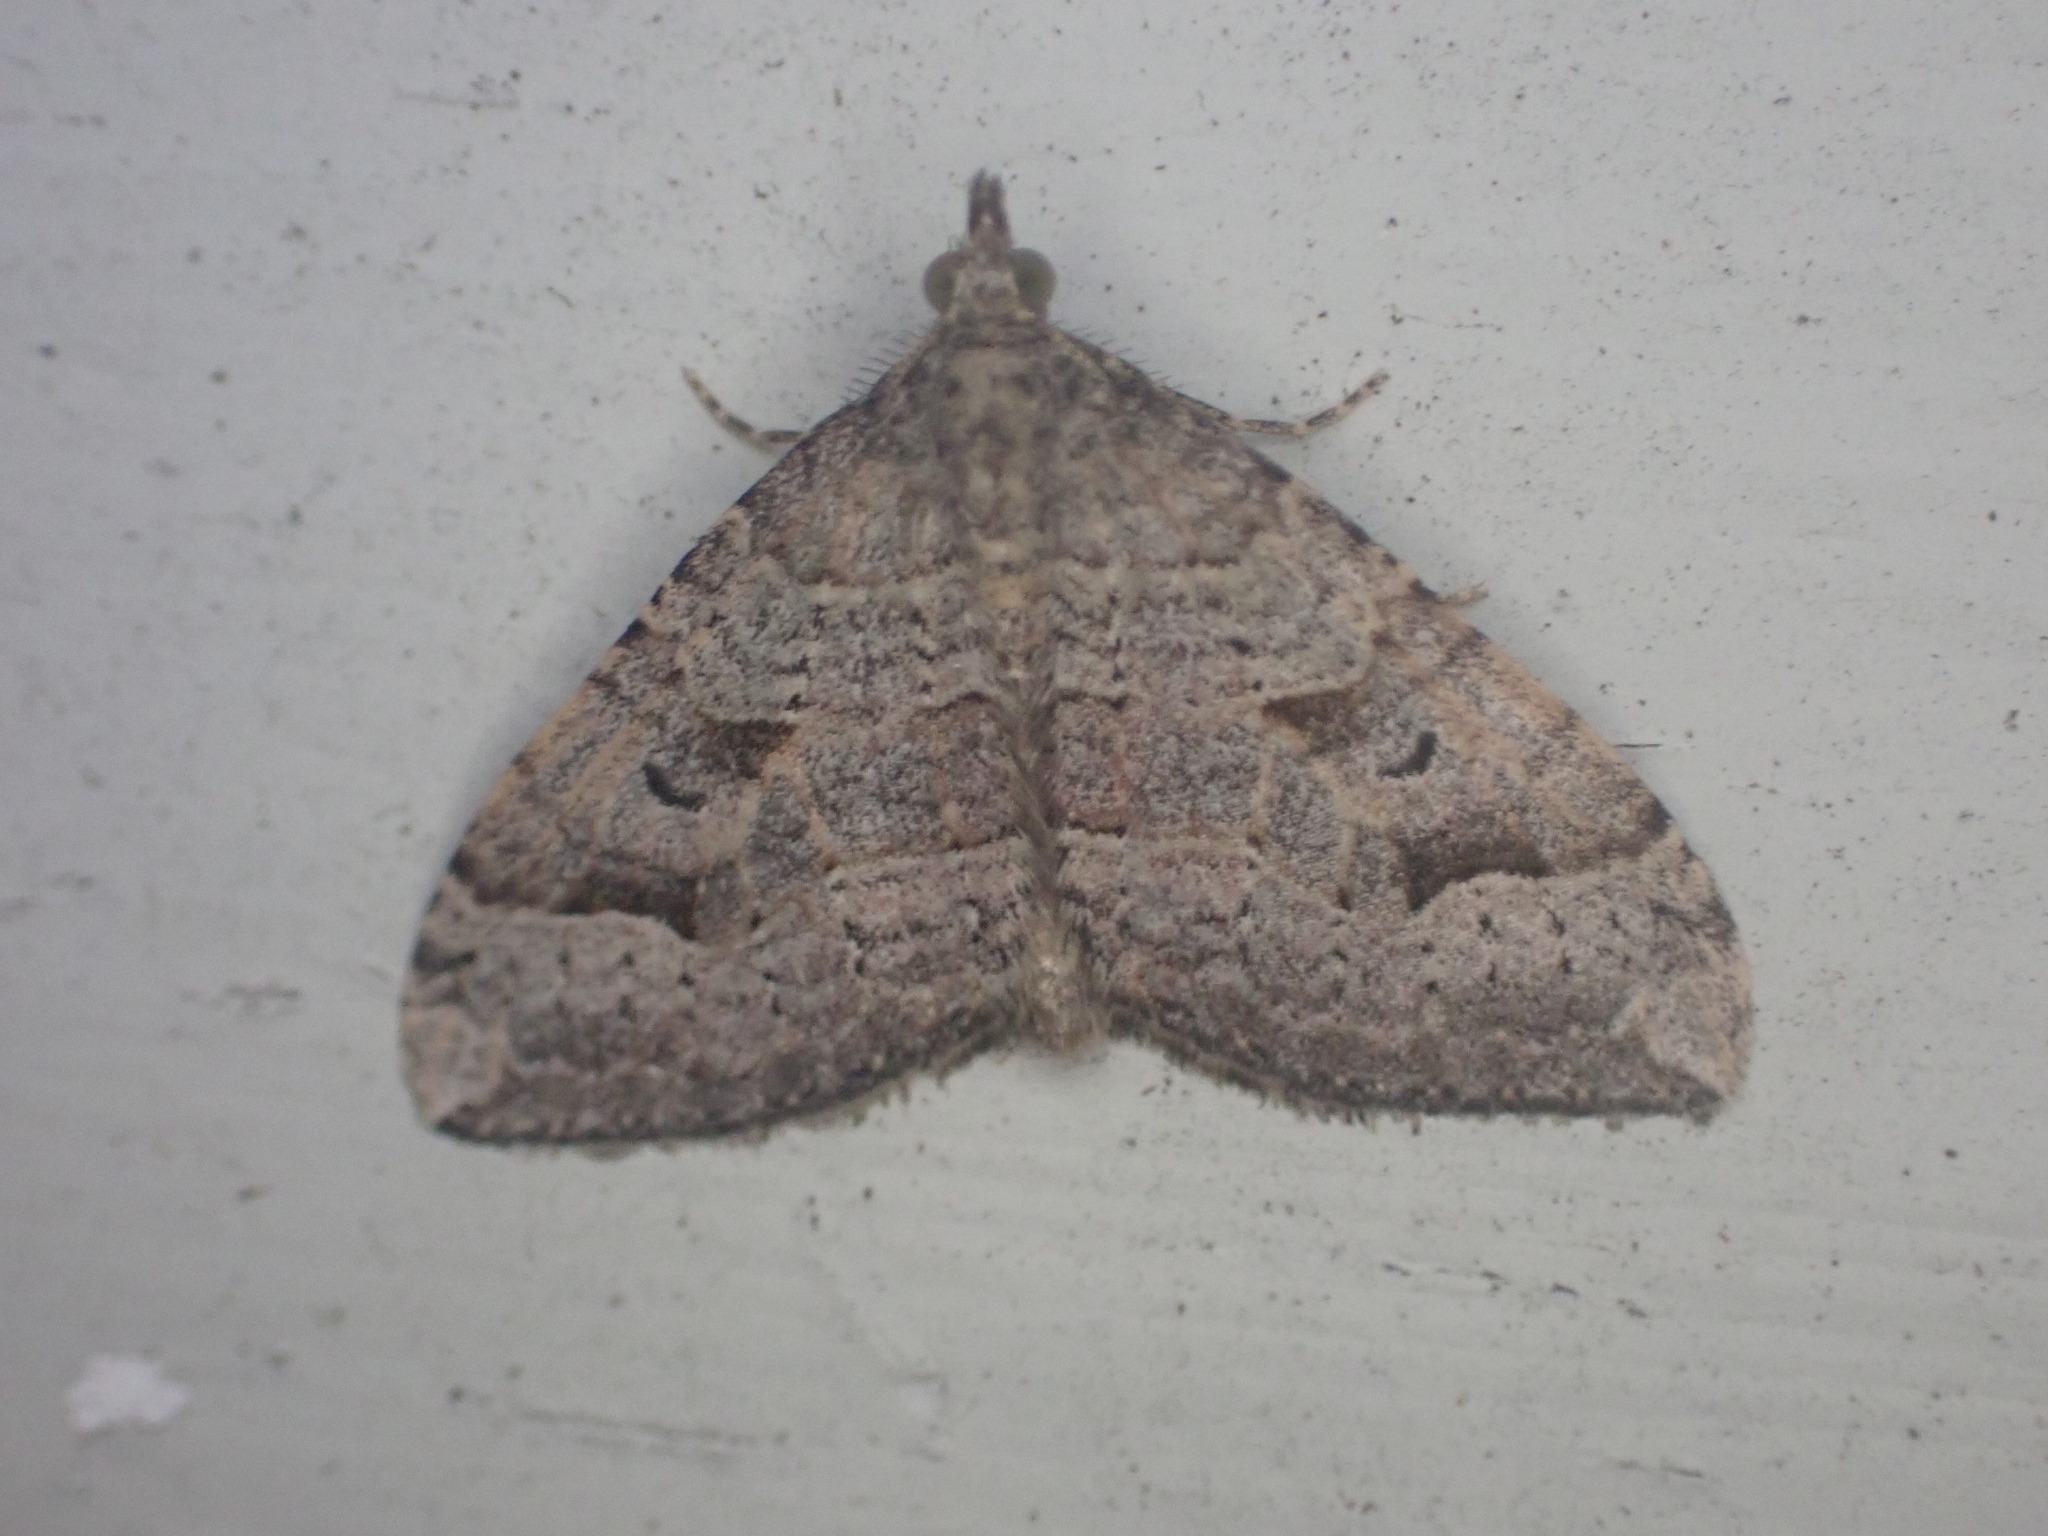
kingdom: Animalia
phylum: Arthropoda
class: Insecta
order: Lepidoptera
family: Geometridae
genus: Epyaxa
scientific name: Epyaxa rosearia
